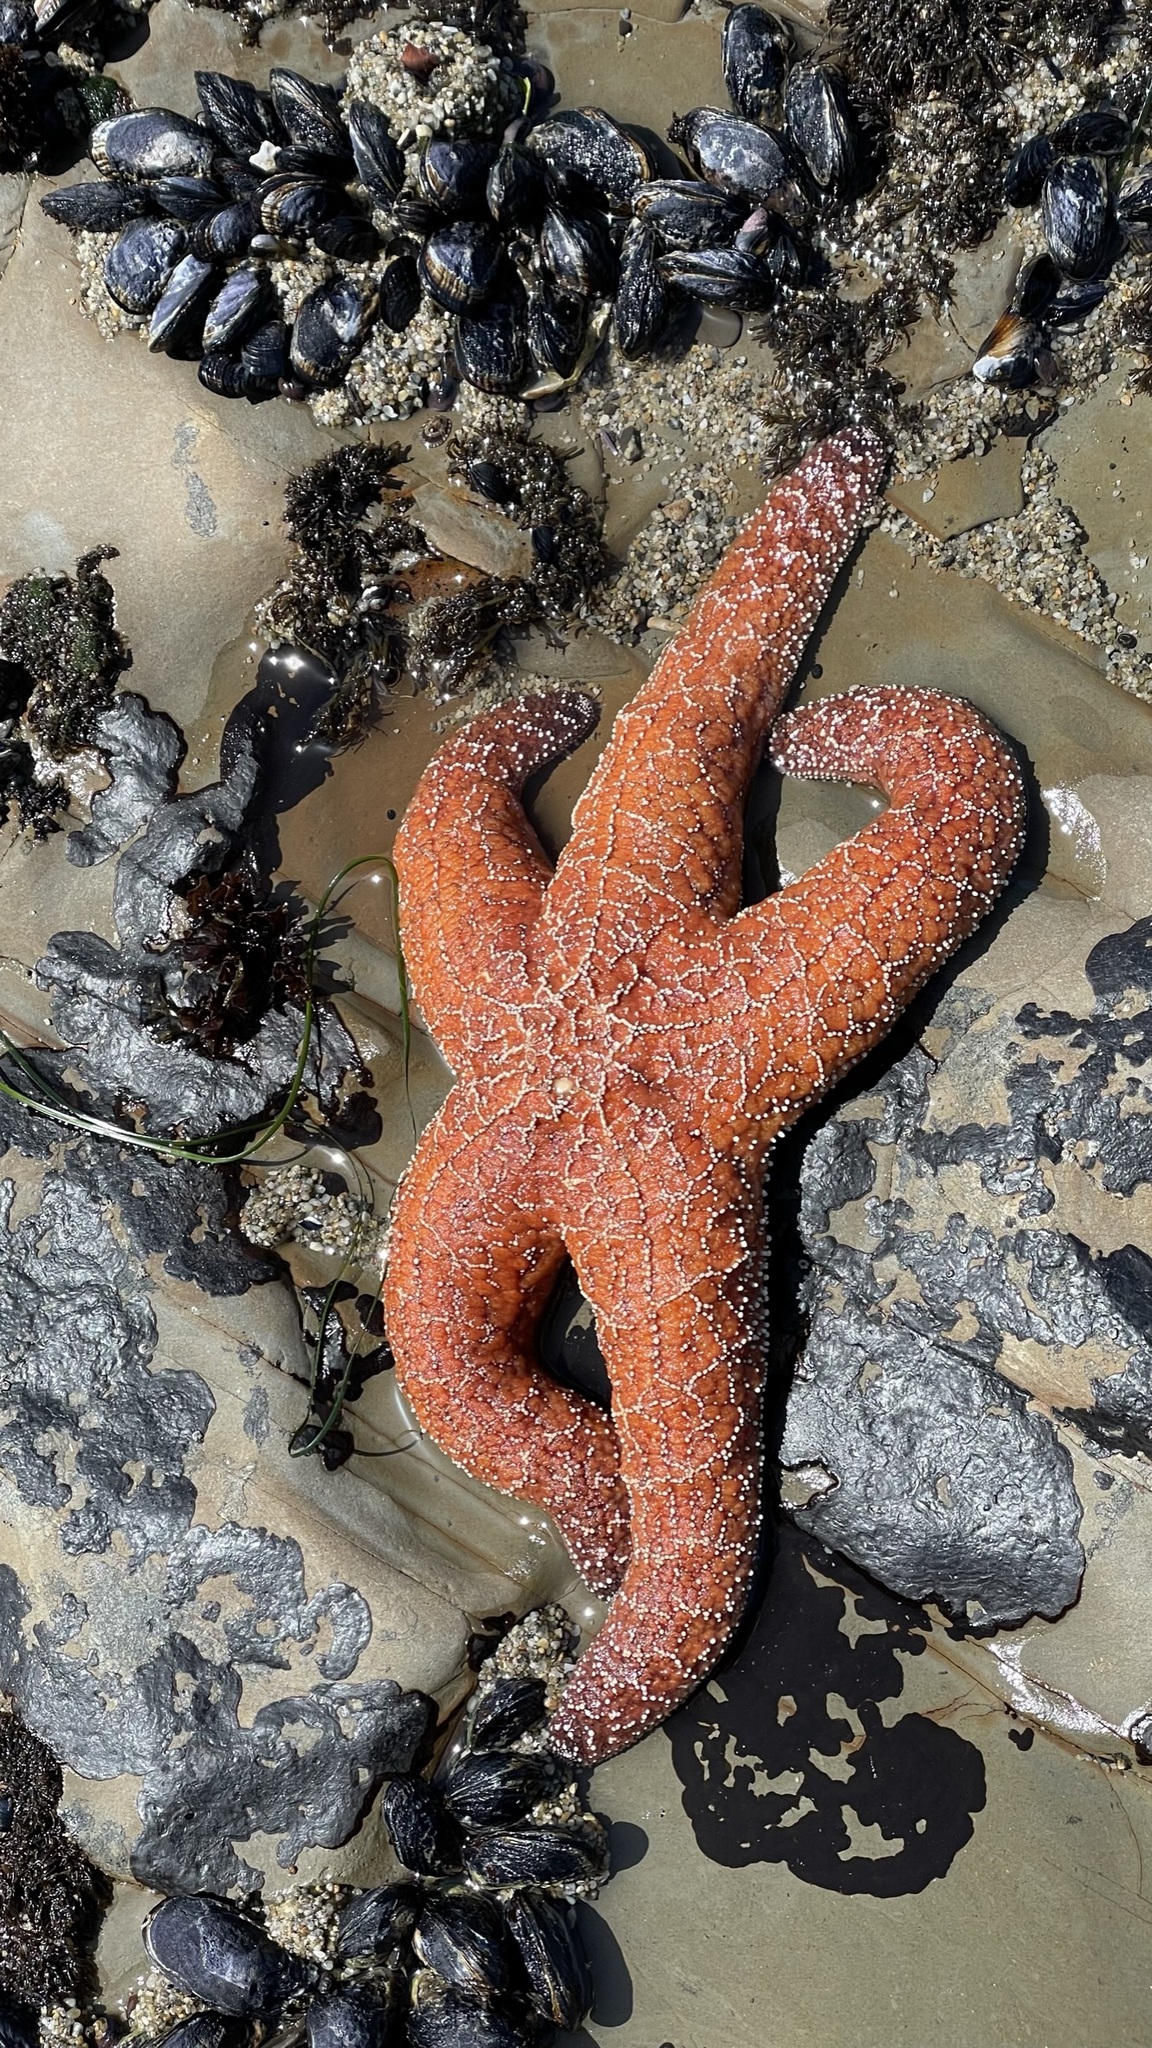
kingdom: Animalia
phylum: Echinodermata
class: Asteroidea
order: Forcipulatida
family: Asteriidae
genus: Pisaster
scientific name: Pisaster ochraceus
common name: Ochre stars
